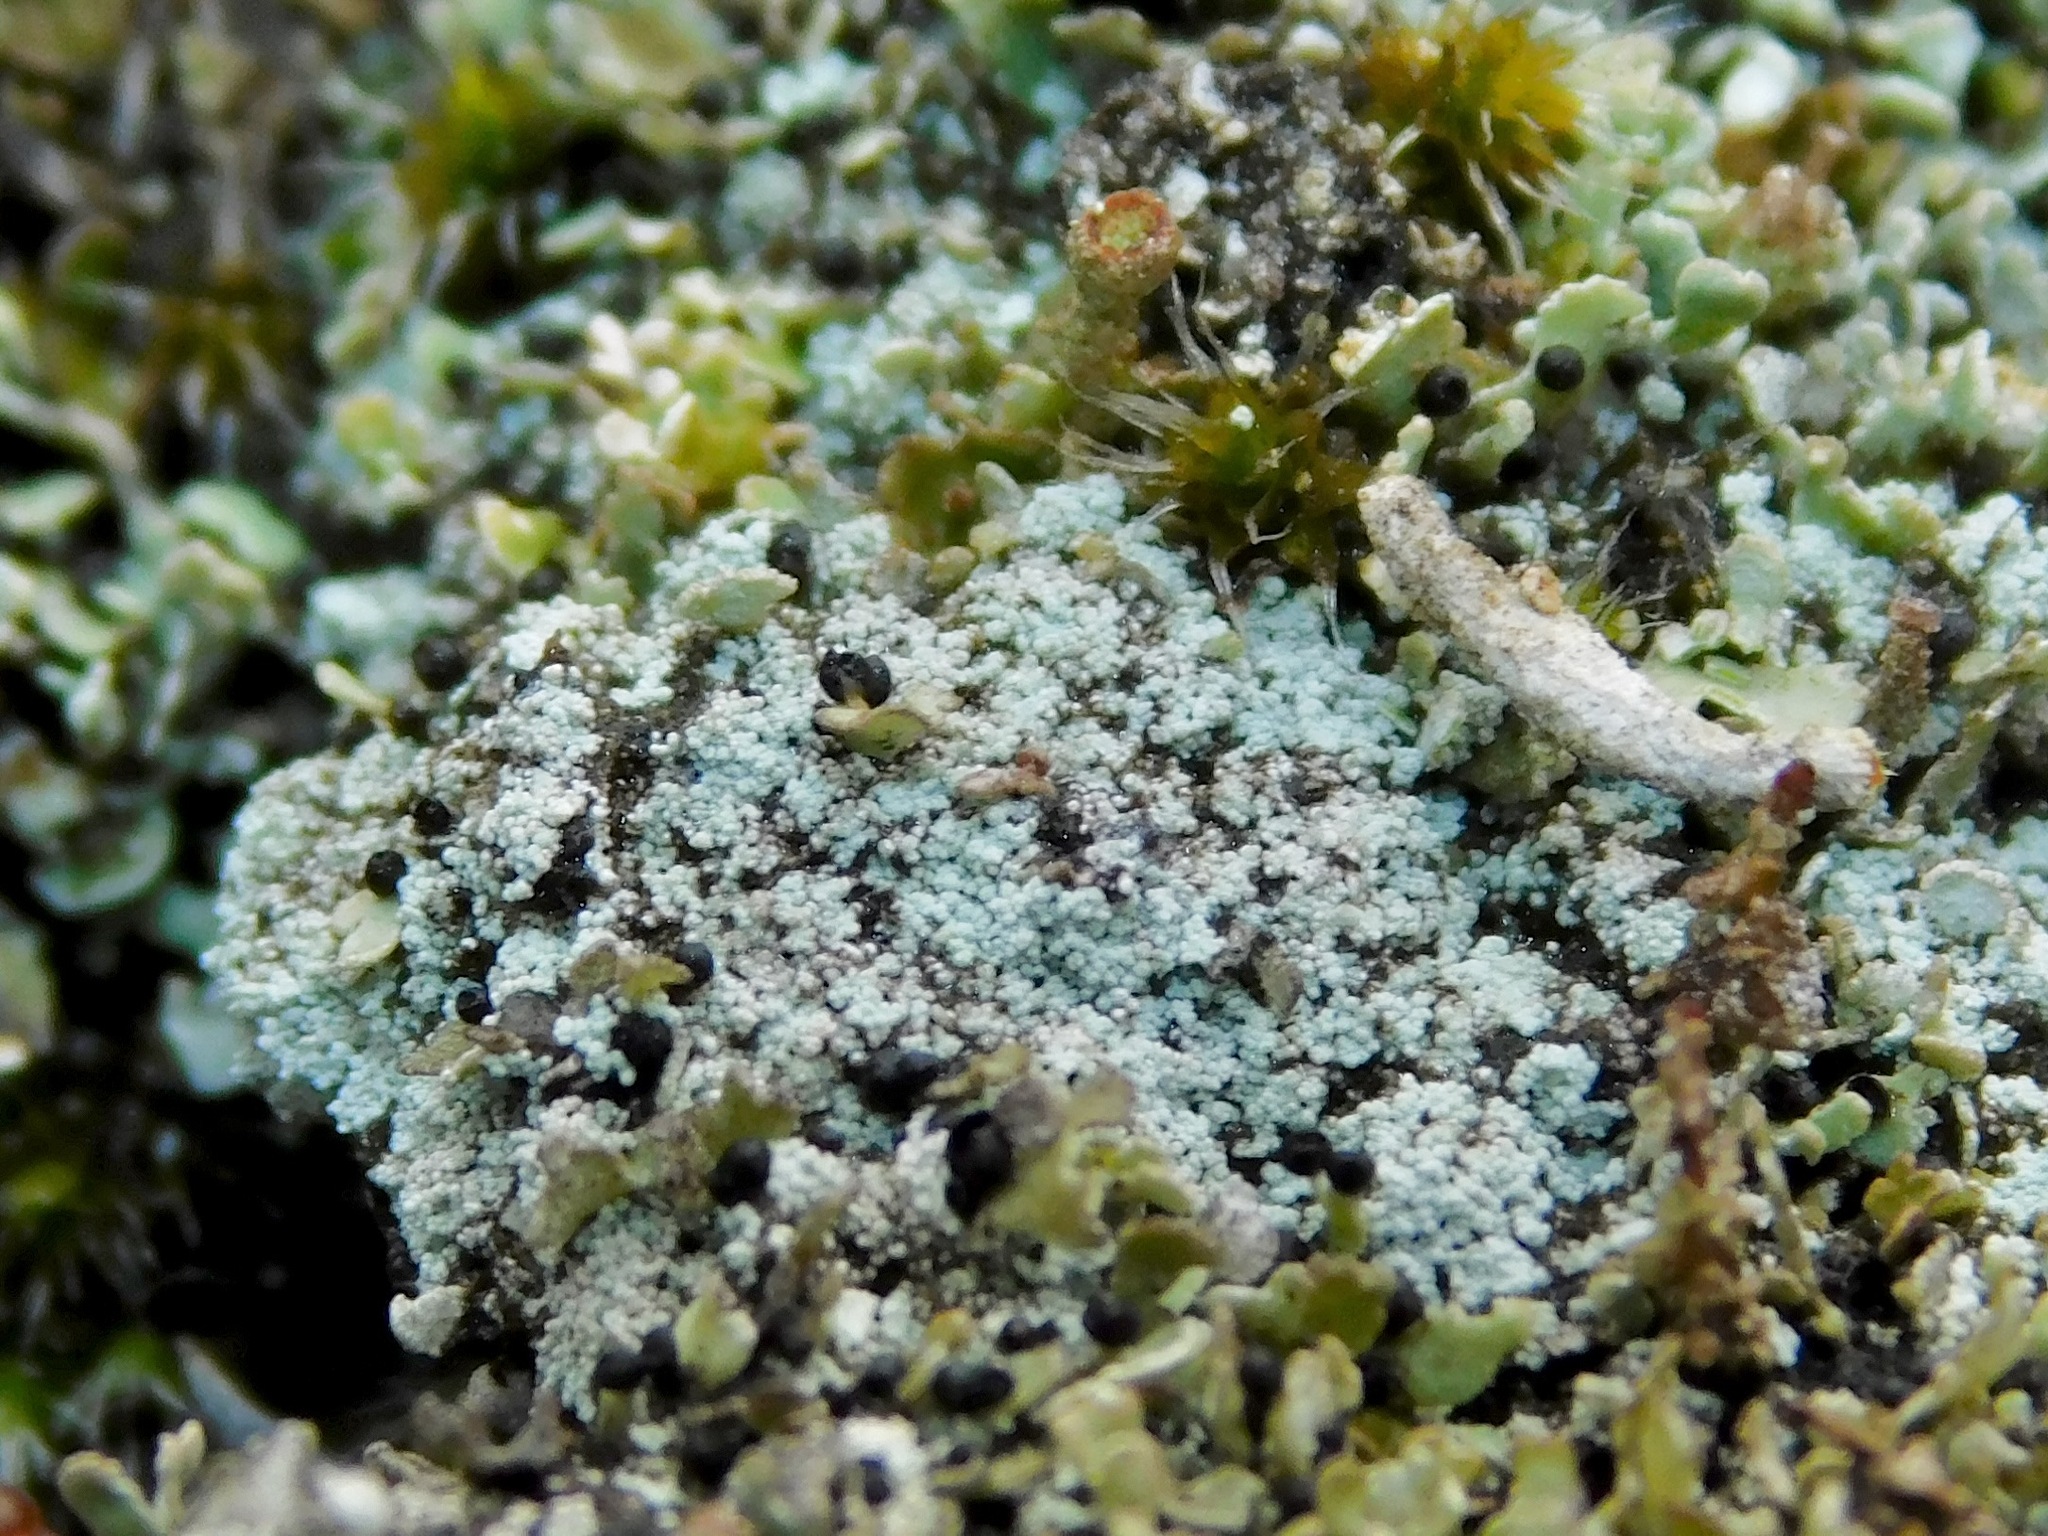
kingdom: Fungi
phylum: Ascomycota
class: Lecanoromycetes
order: Lecanorales
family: Cladoniaceae
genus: Cladonia
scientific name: Cladonia caespiticia
